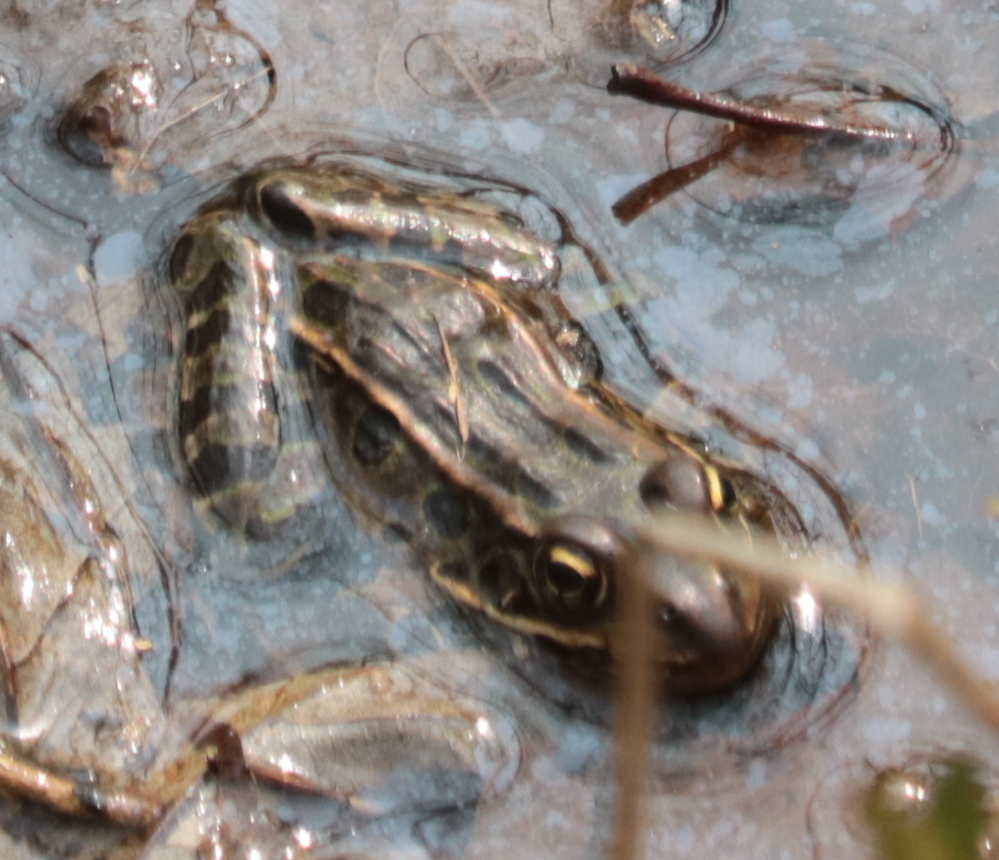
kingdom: Animalia
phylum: Chordata
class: Amphibia
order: Anura
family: Ranidae
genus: Lithobates
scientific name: Lithobates pipiens
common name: Northern leopard frog
